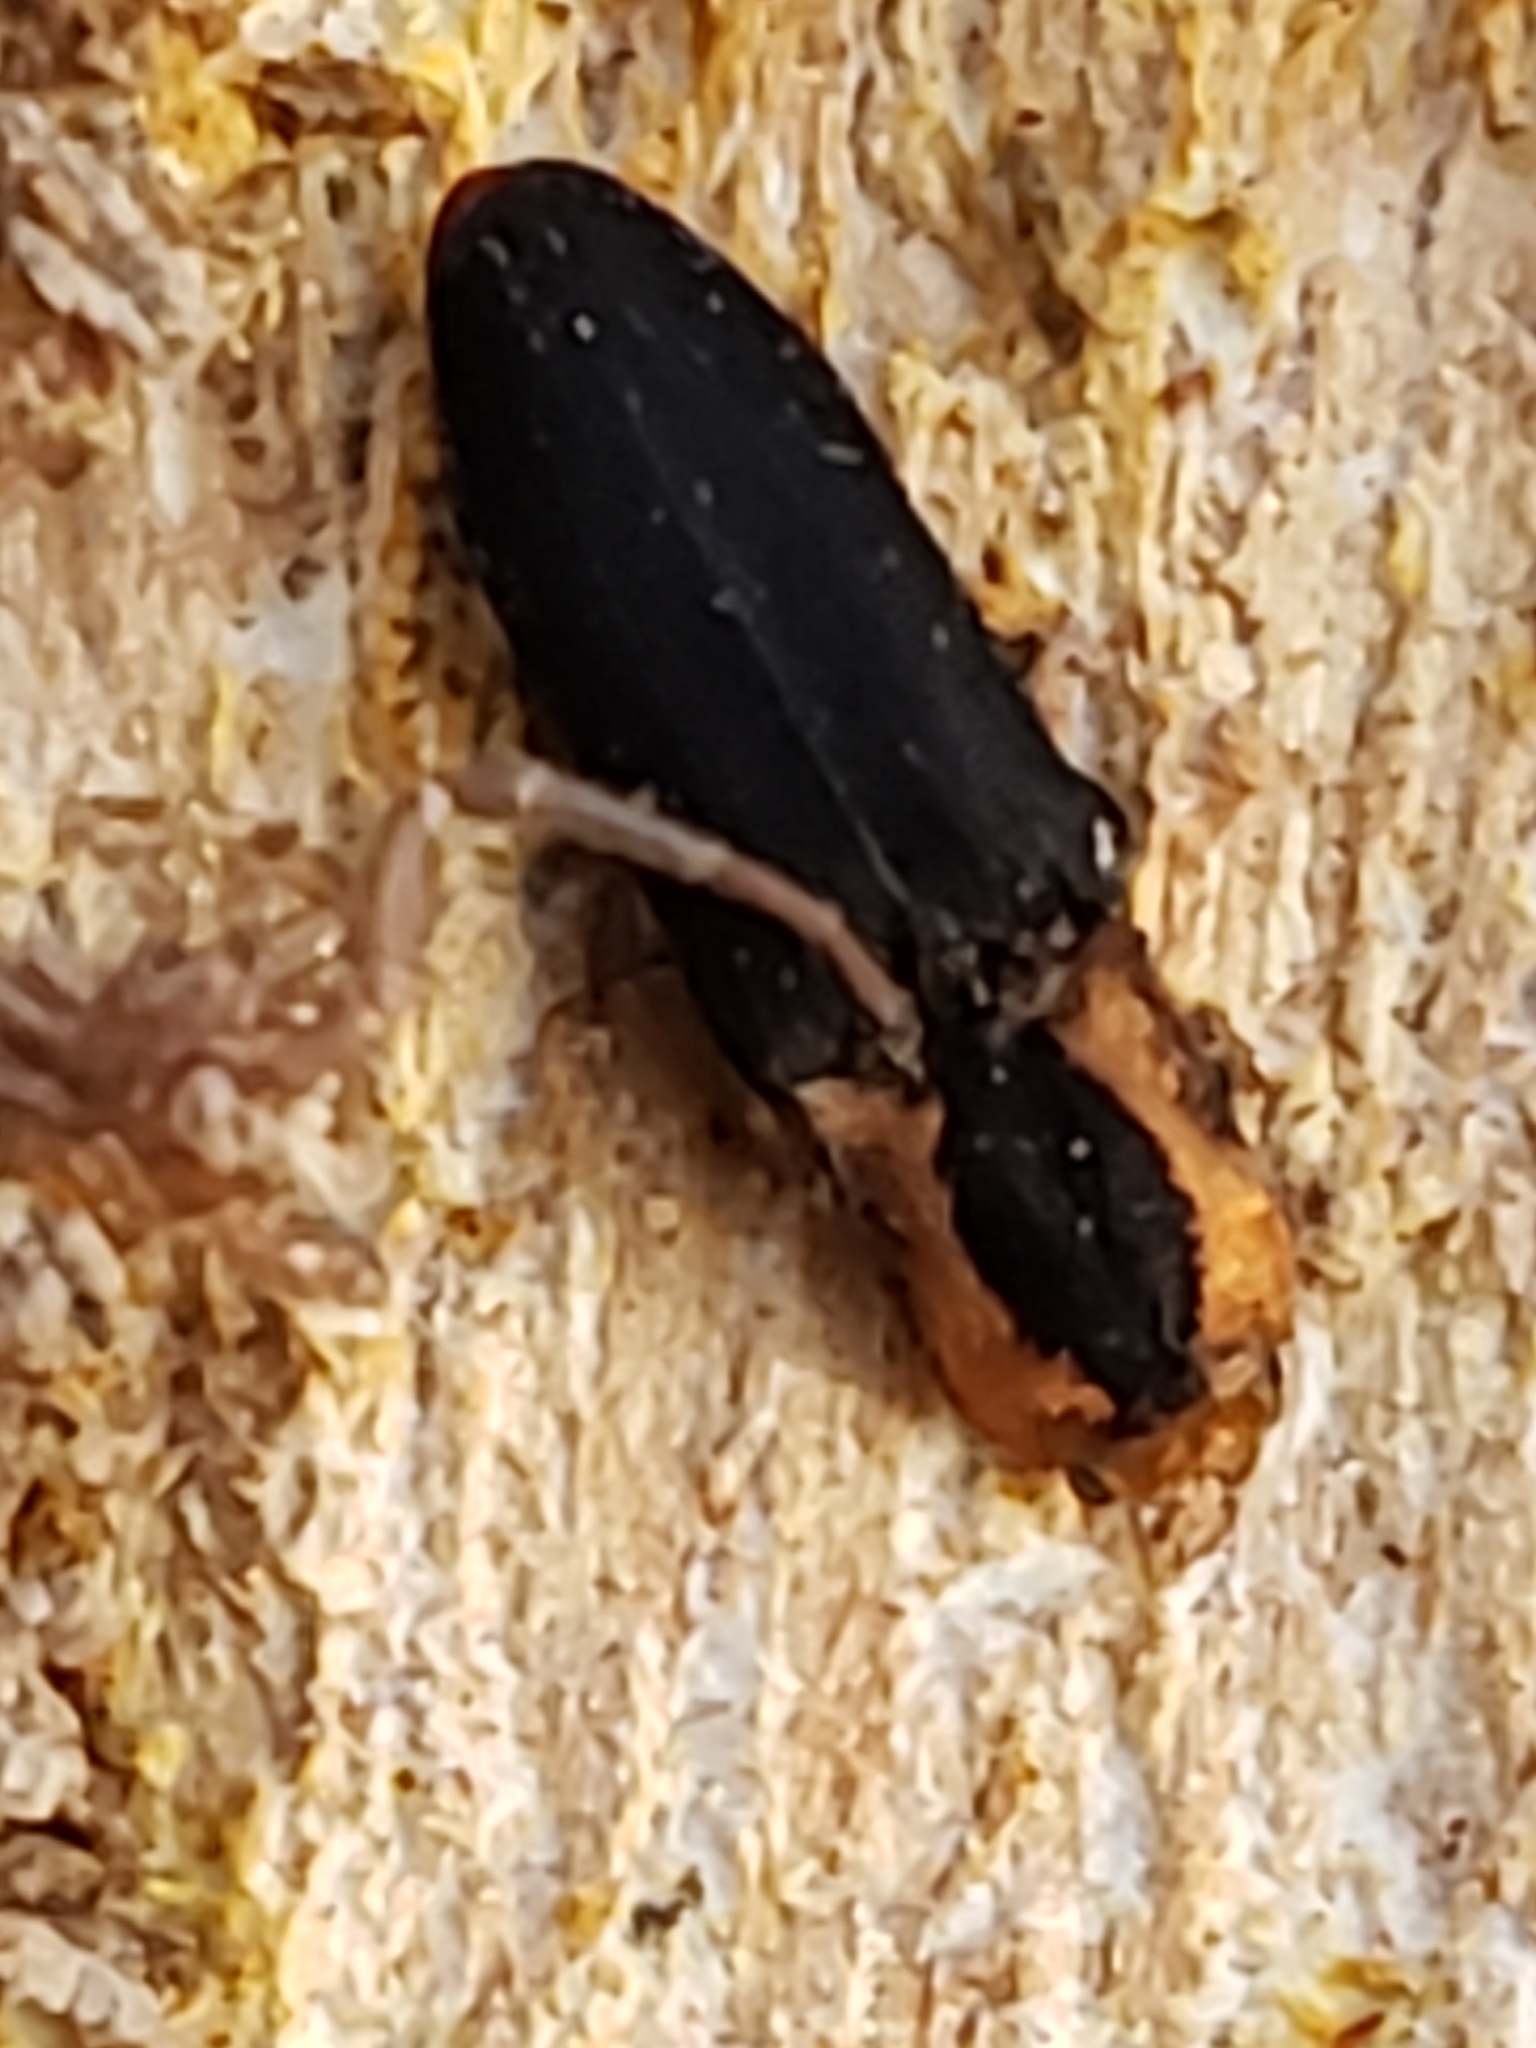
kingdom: Animalia
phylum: Arthropoda
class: Insecta
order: Coleoptera
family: Elateridae
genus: Lacon
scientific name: Lacon discoideus
